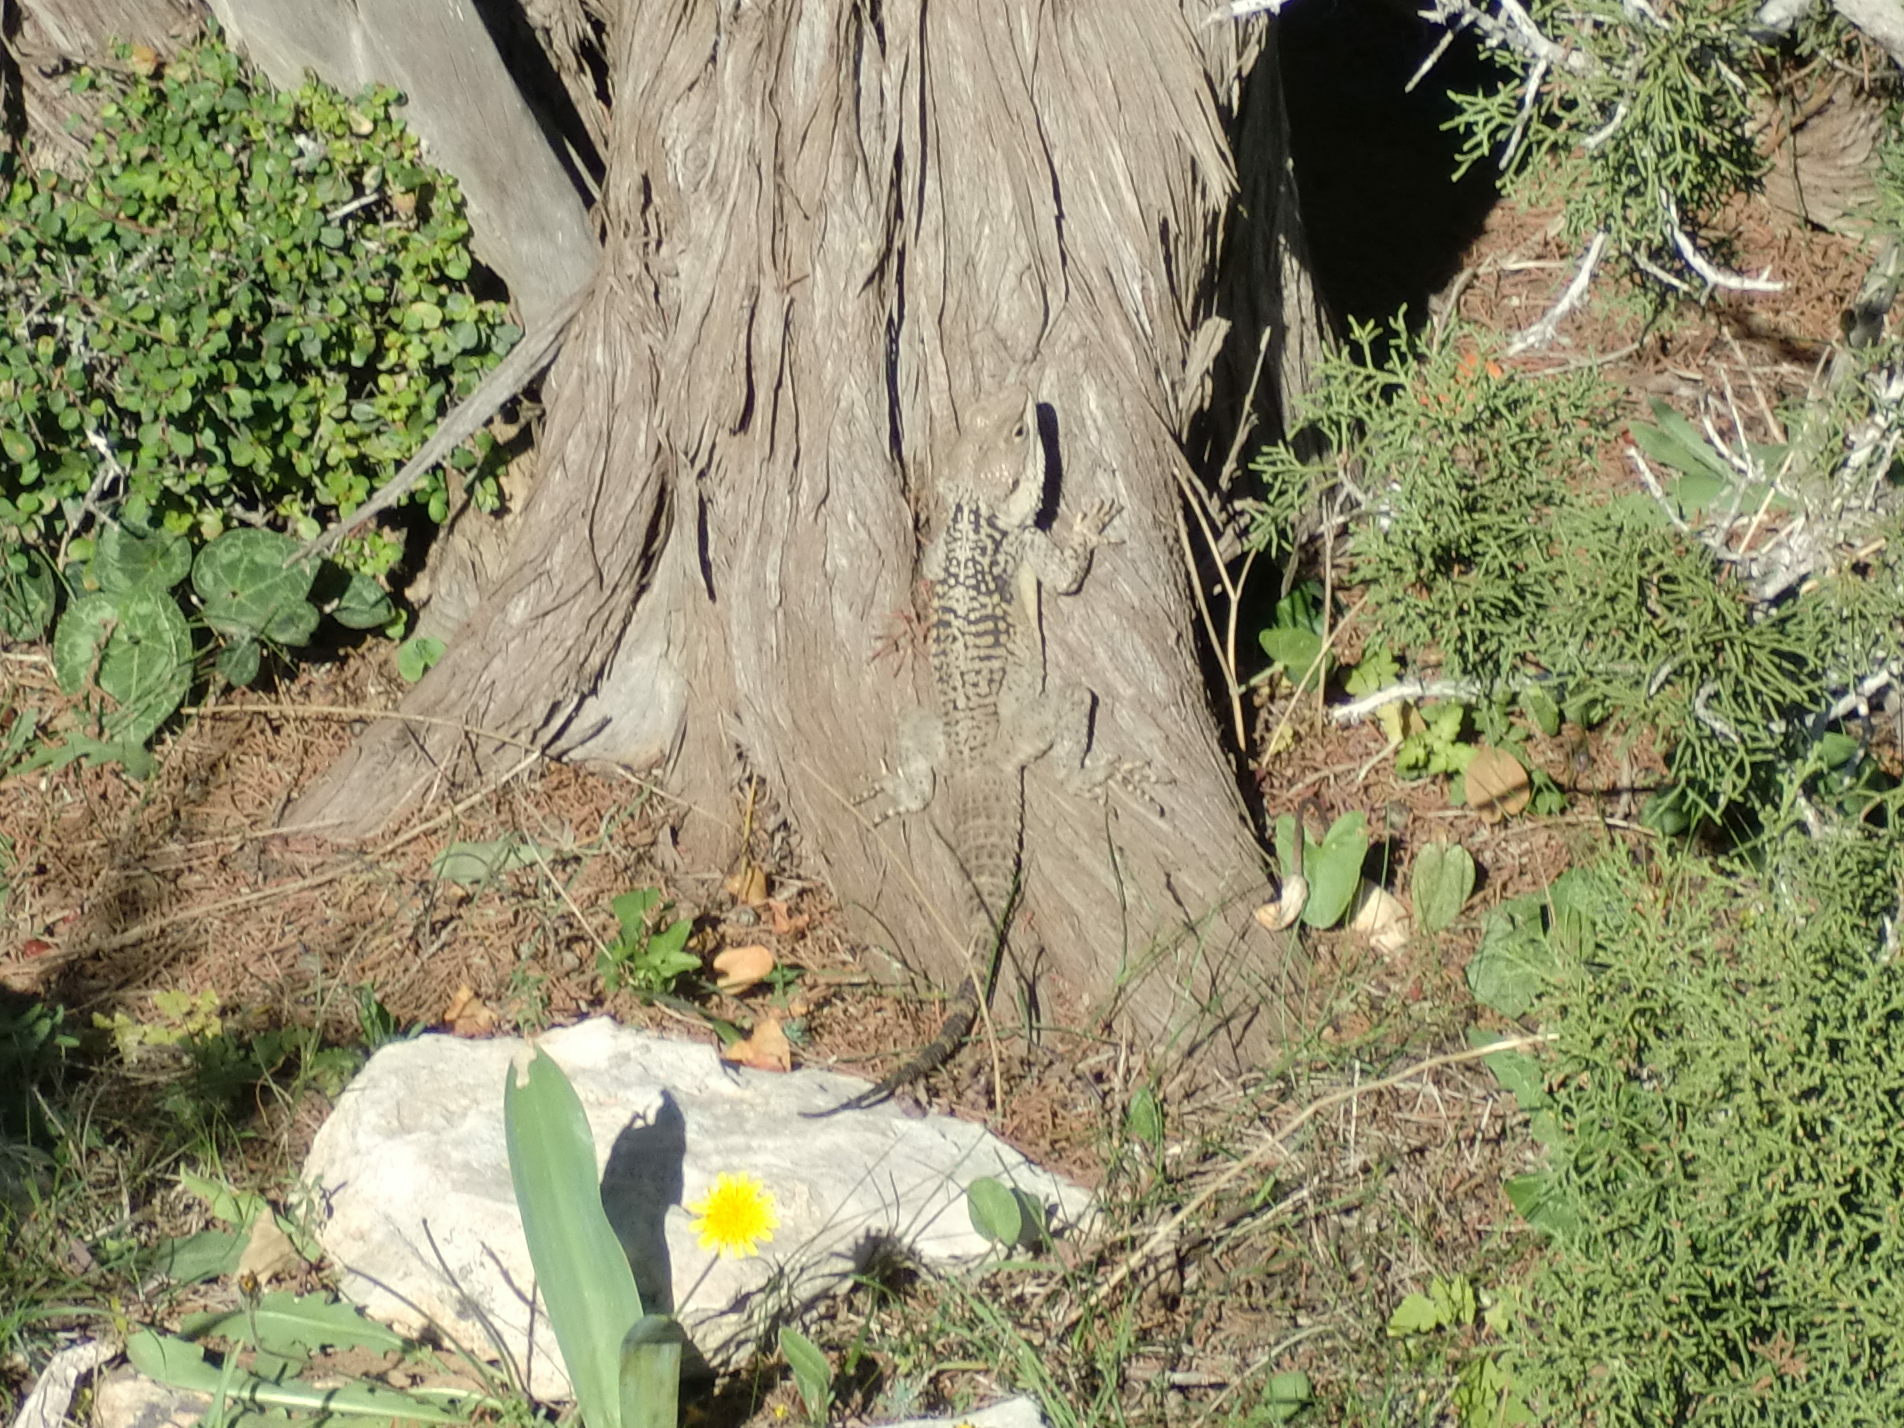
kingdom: Animalia
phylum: Chordata
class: Squamata
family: Agamidae
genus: Laudakia
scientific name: Laudakia
